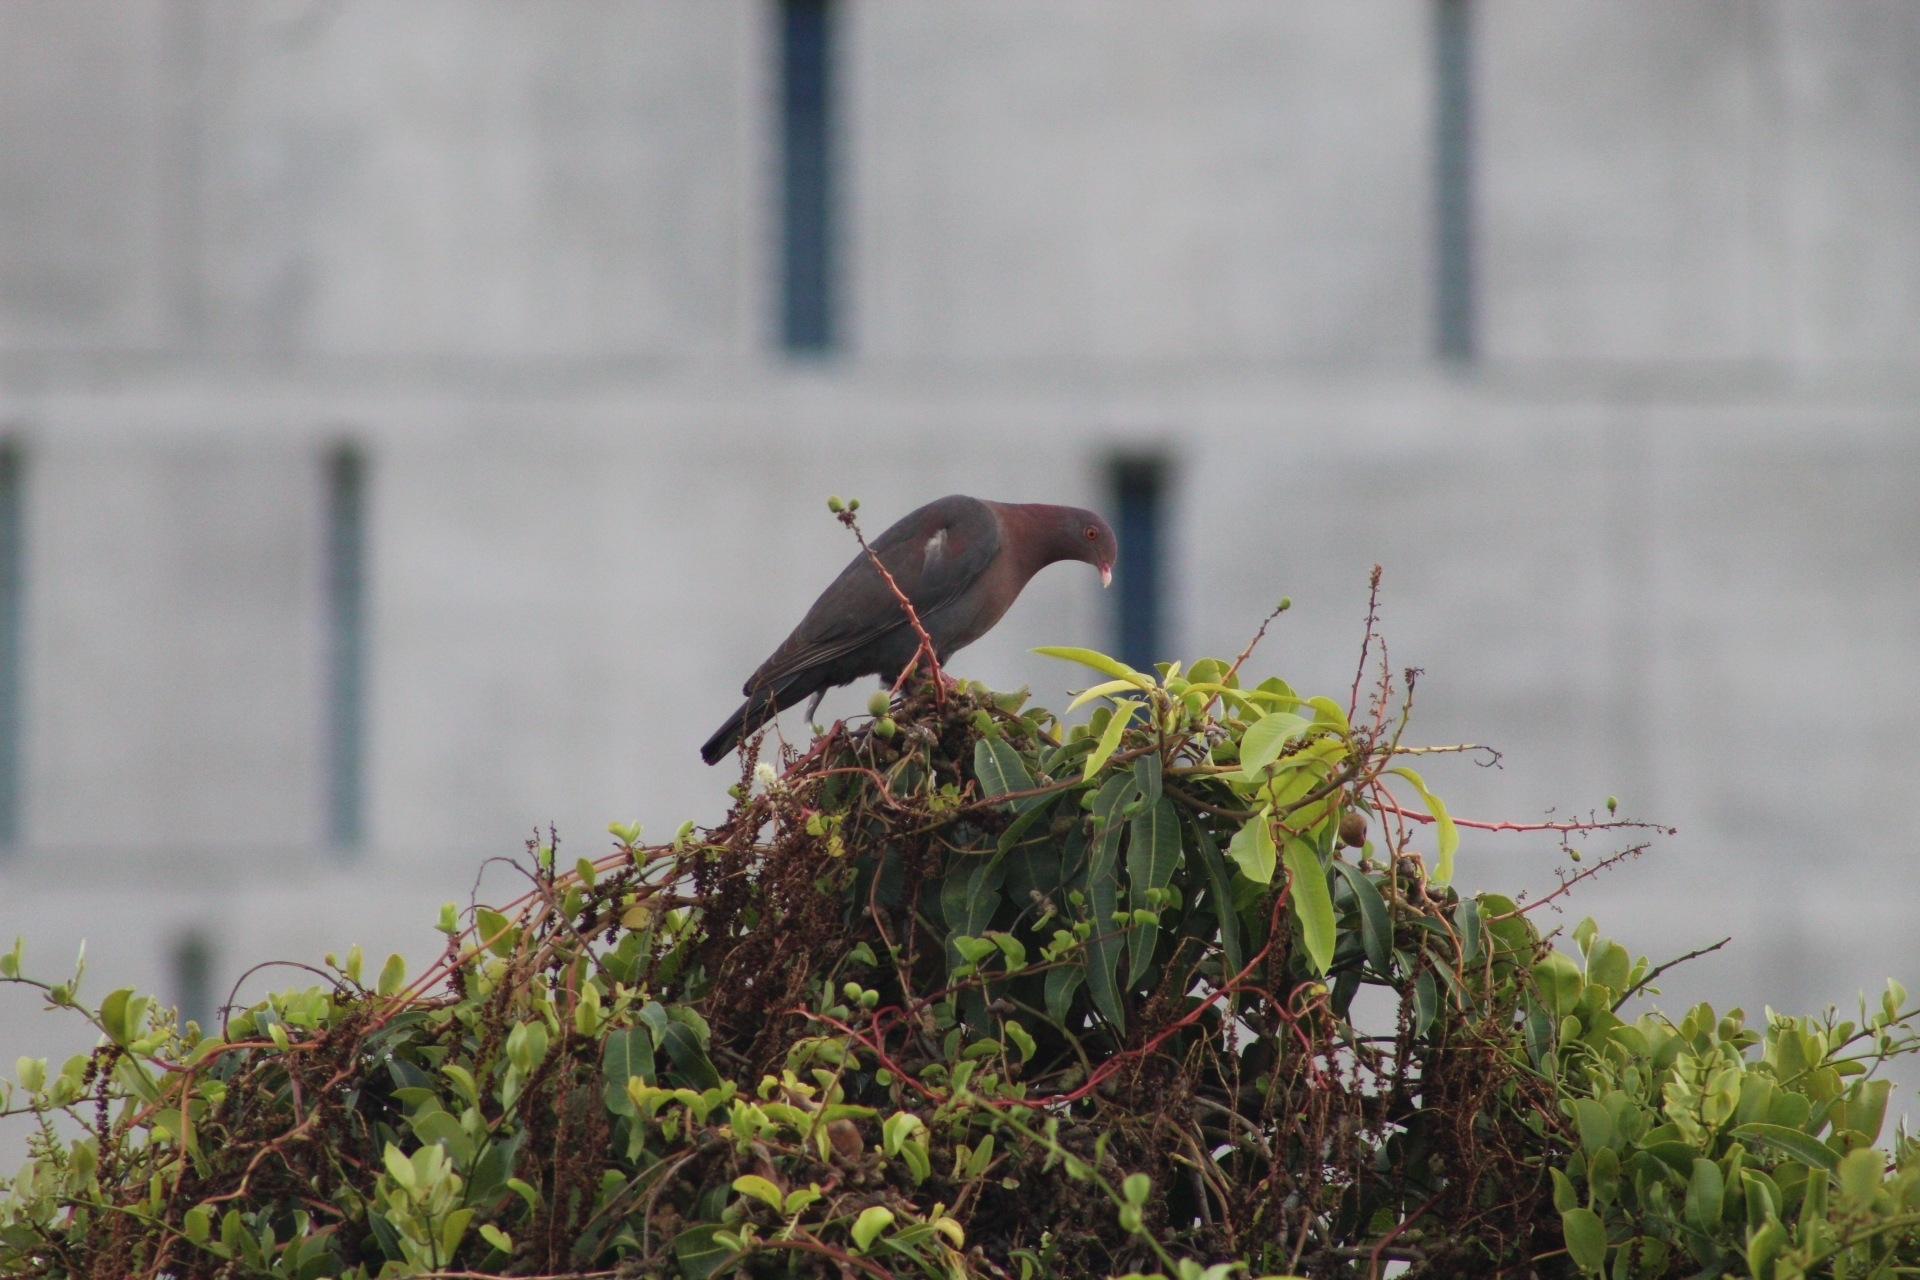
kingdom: Animalia
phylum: Chordata
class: Aves
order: Columbiformes
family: Columbidae
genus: Patagioenas
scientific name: Patagioenas flavirostris
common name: Red-billed pigeon
